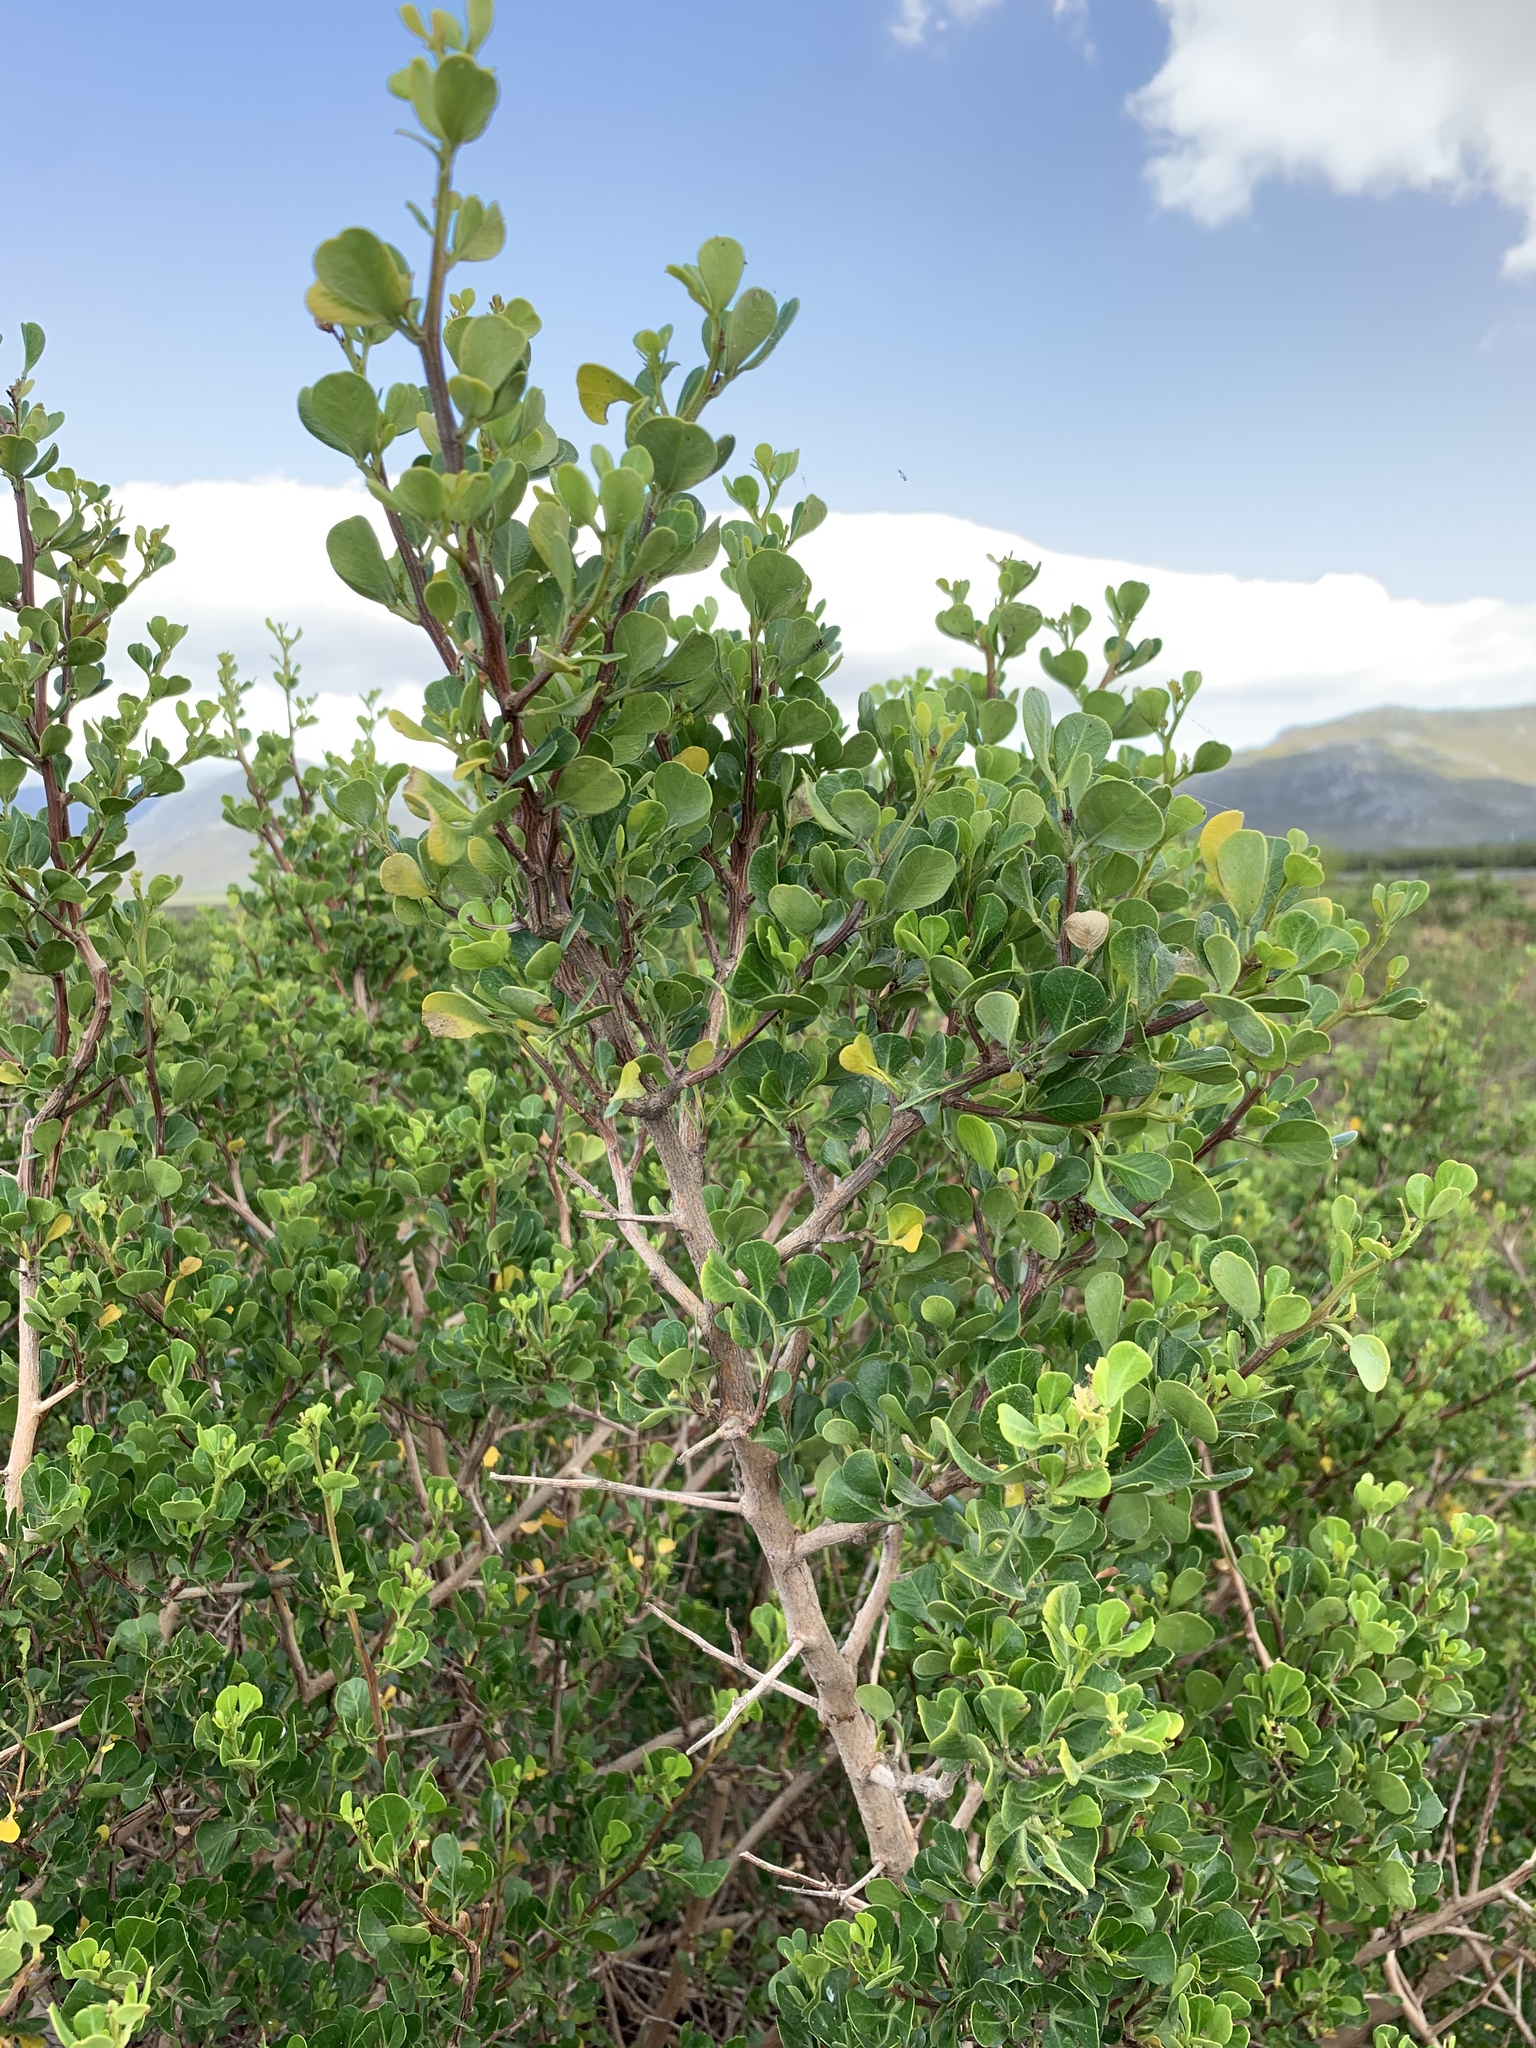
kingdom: Plantae
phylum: Tracheophyta
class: Magnoliopsida
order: Sapindales
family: Anacardiaceae
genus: Searsia
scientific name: Searsia glauca
